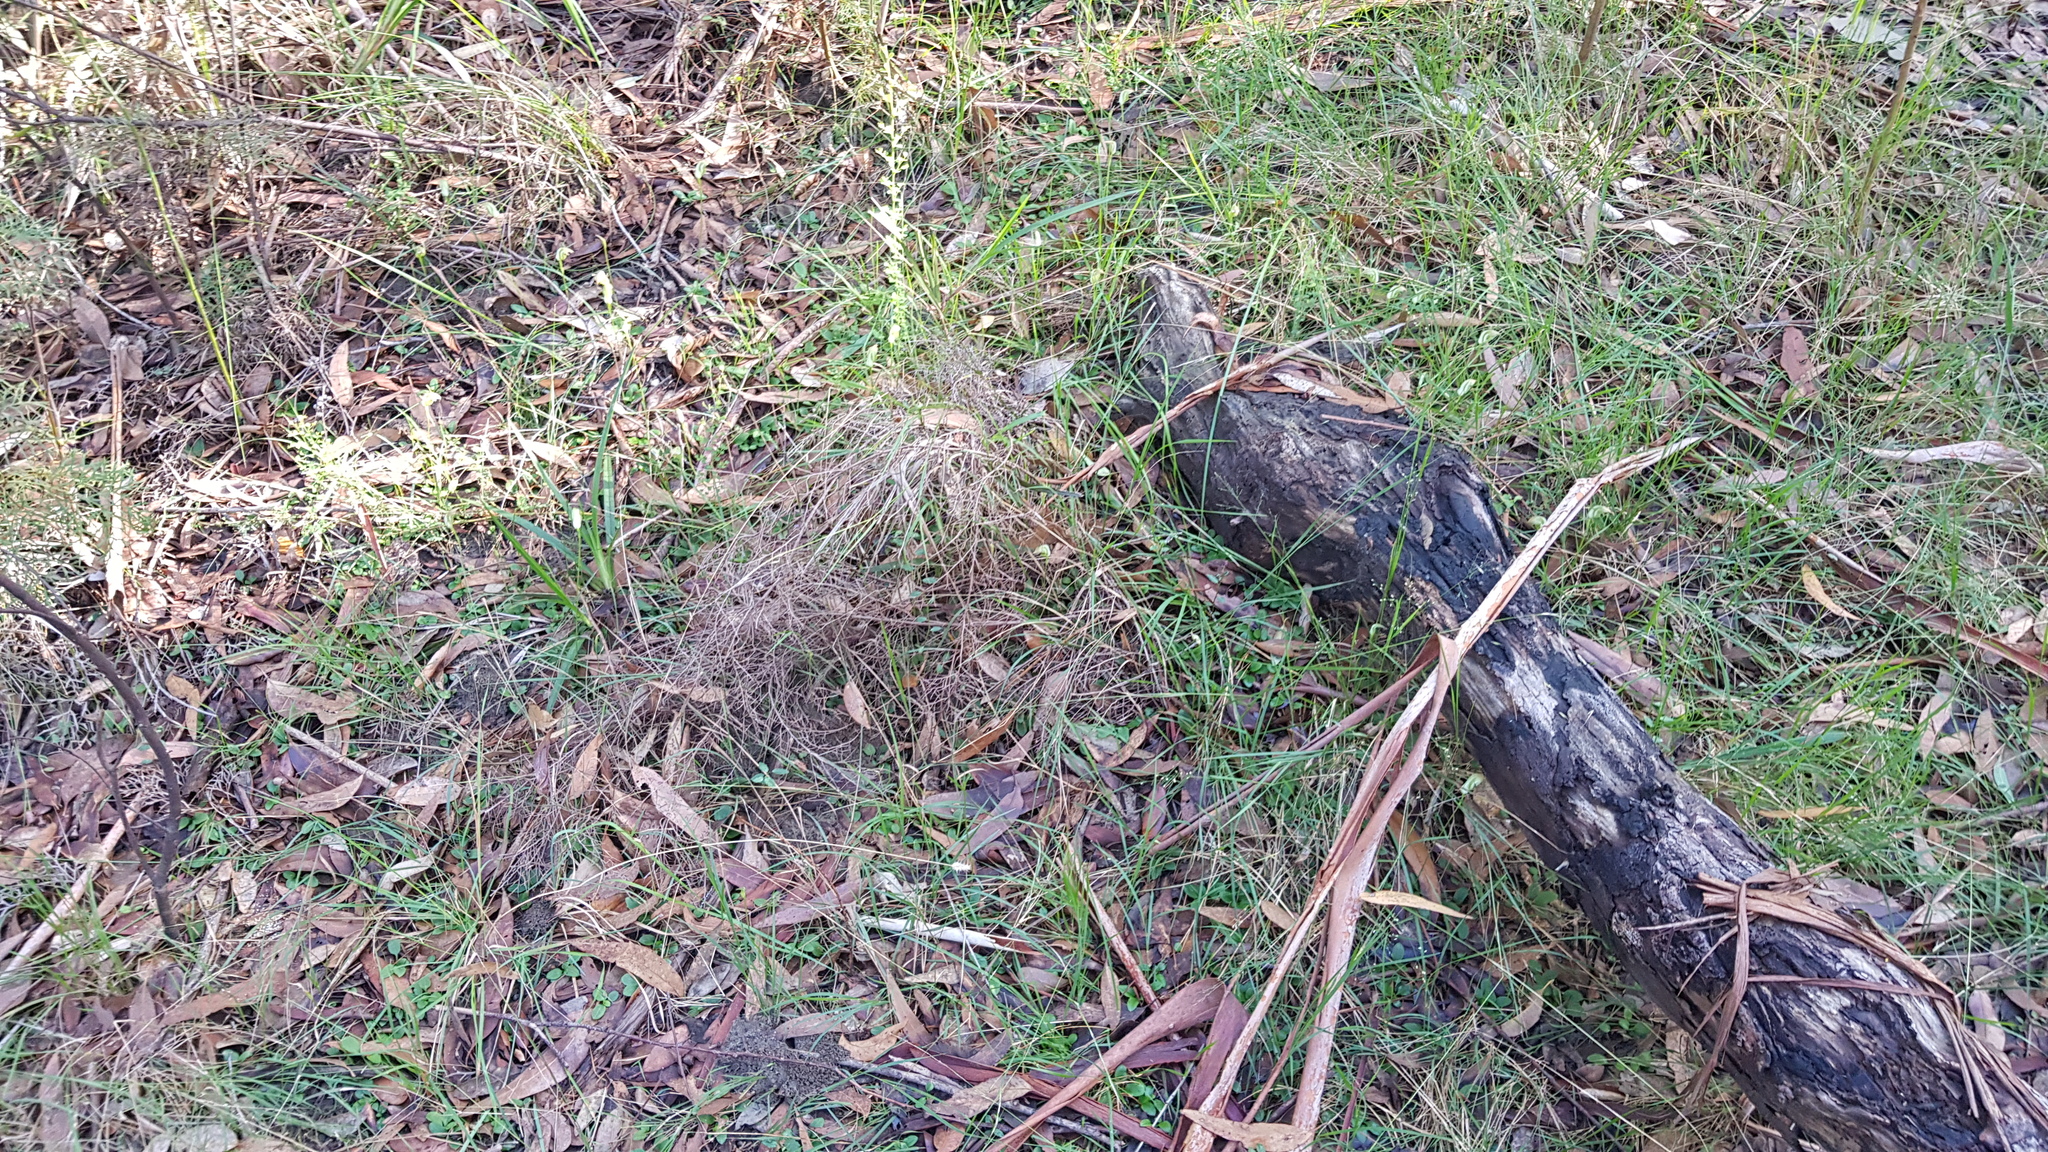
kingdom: Plantae
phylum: Tracheophyta
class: Liliopsida
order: Asparagales
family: Orchidaceae
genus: Pterostylis
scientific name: Pterostylis acuminata
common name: Pointed greenhood
